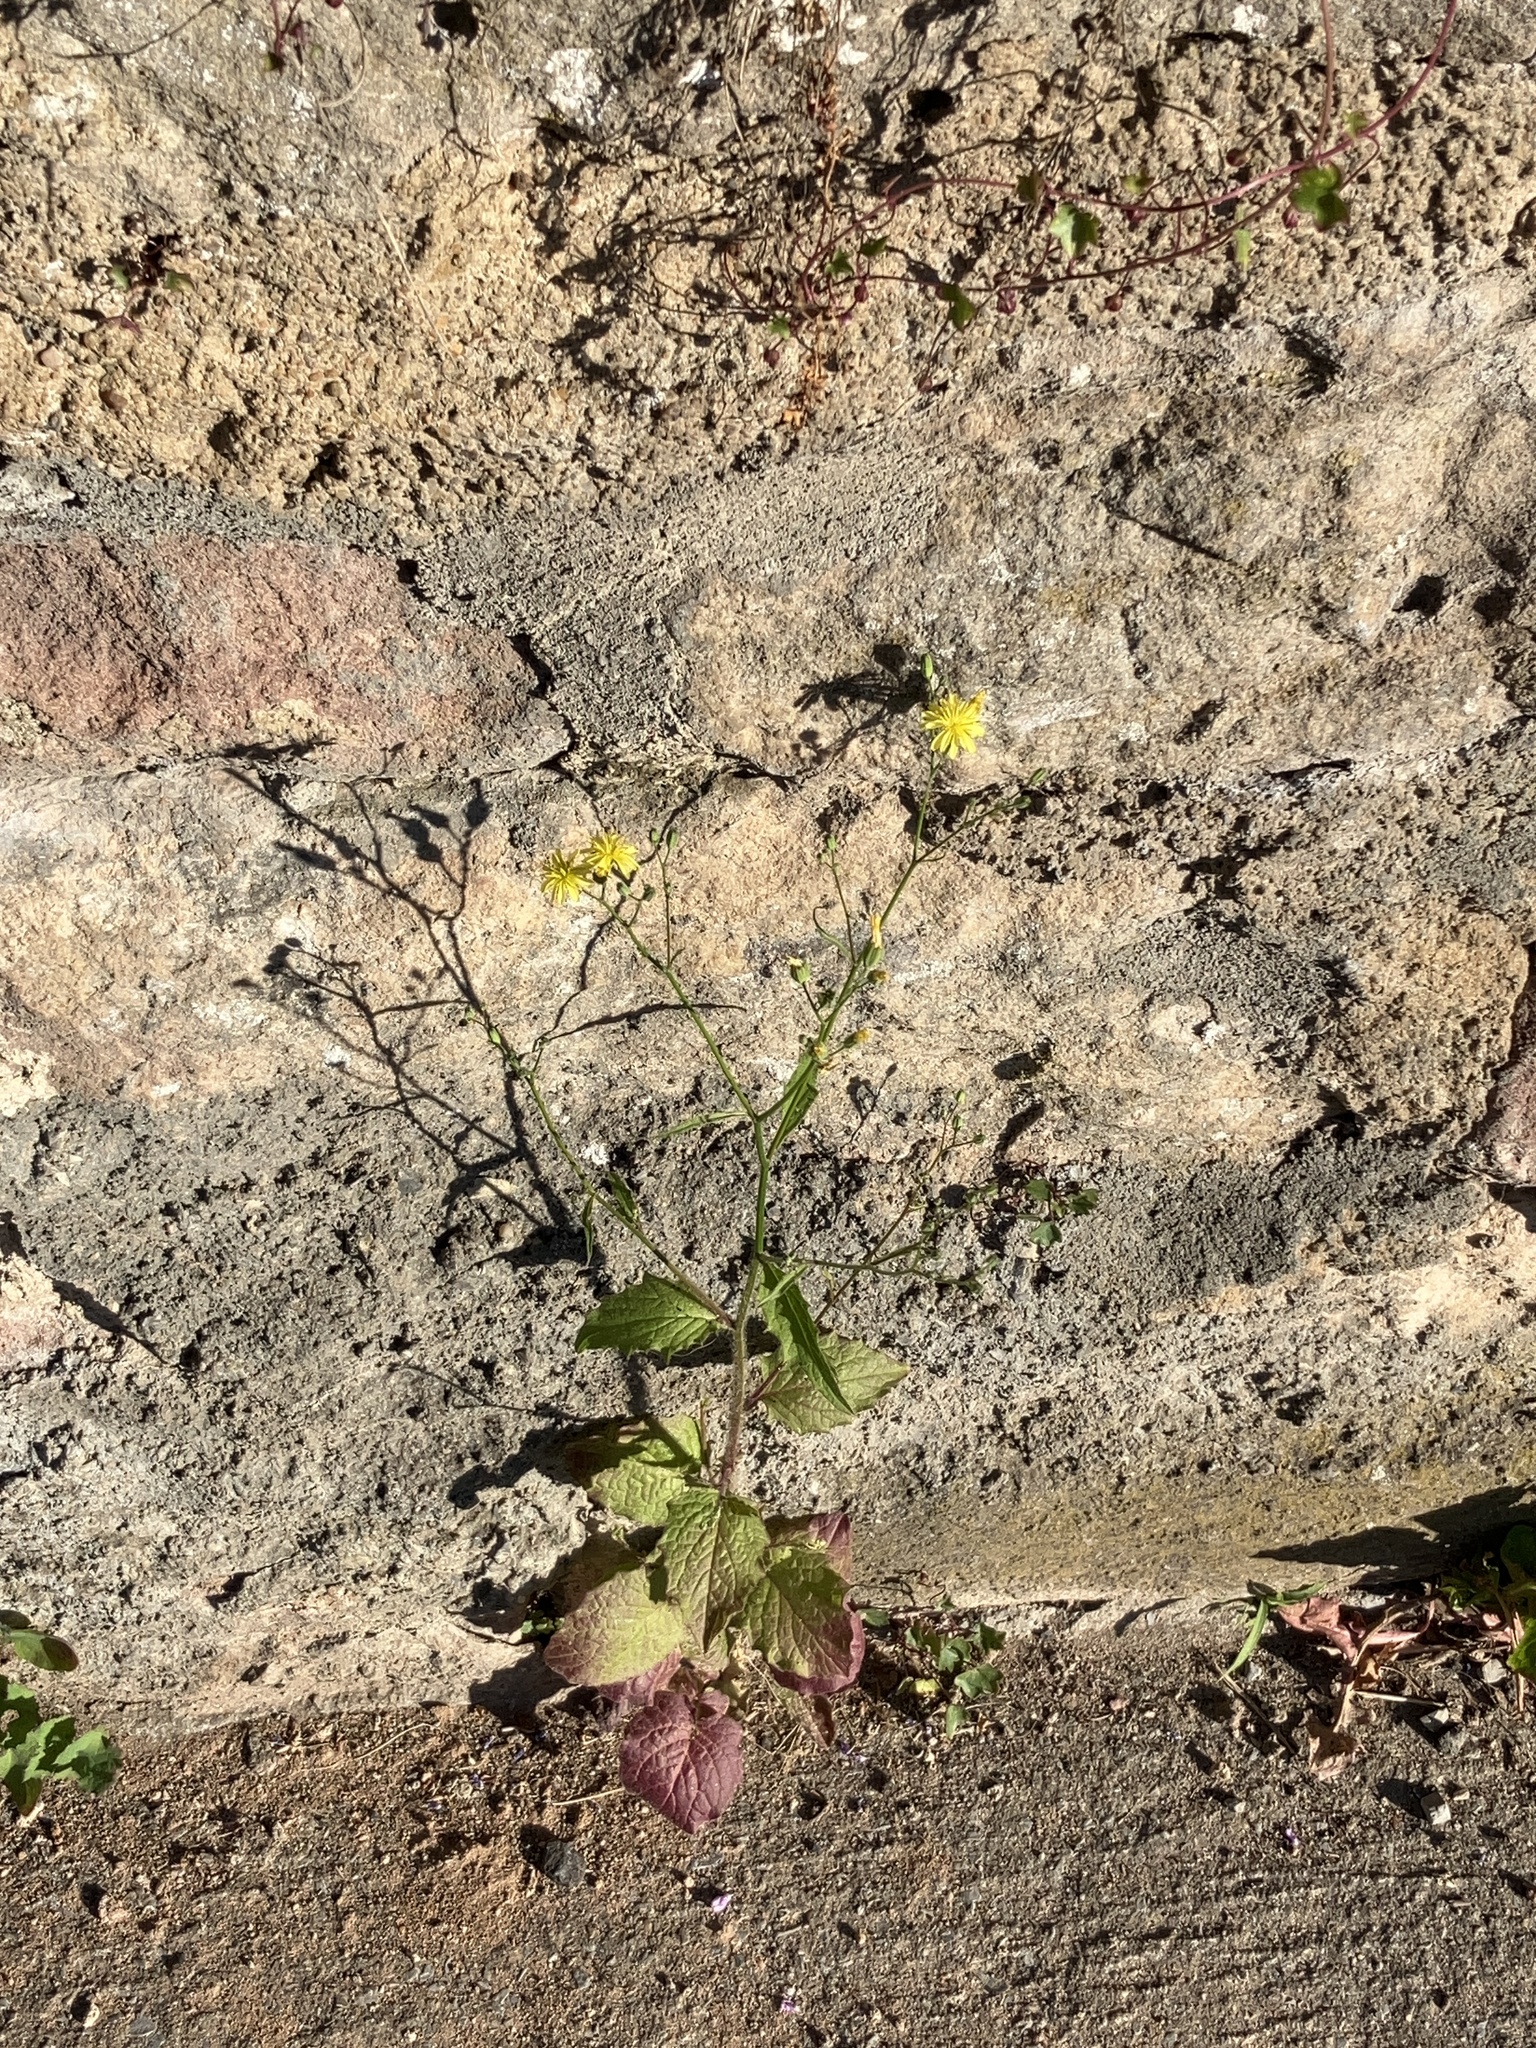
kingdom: Plantae
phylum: Tracheophyta
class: Magnoliopsida
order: Asterales
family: Asteraceae
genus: Lapsana
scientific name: Lapsana communis
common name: Nipplewort
